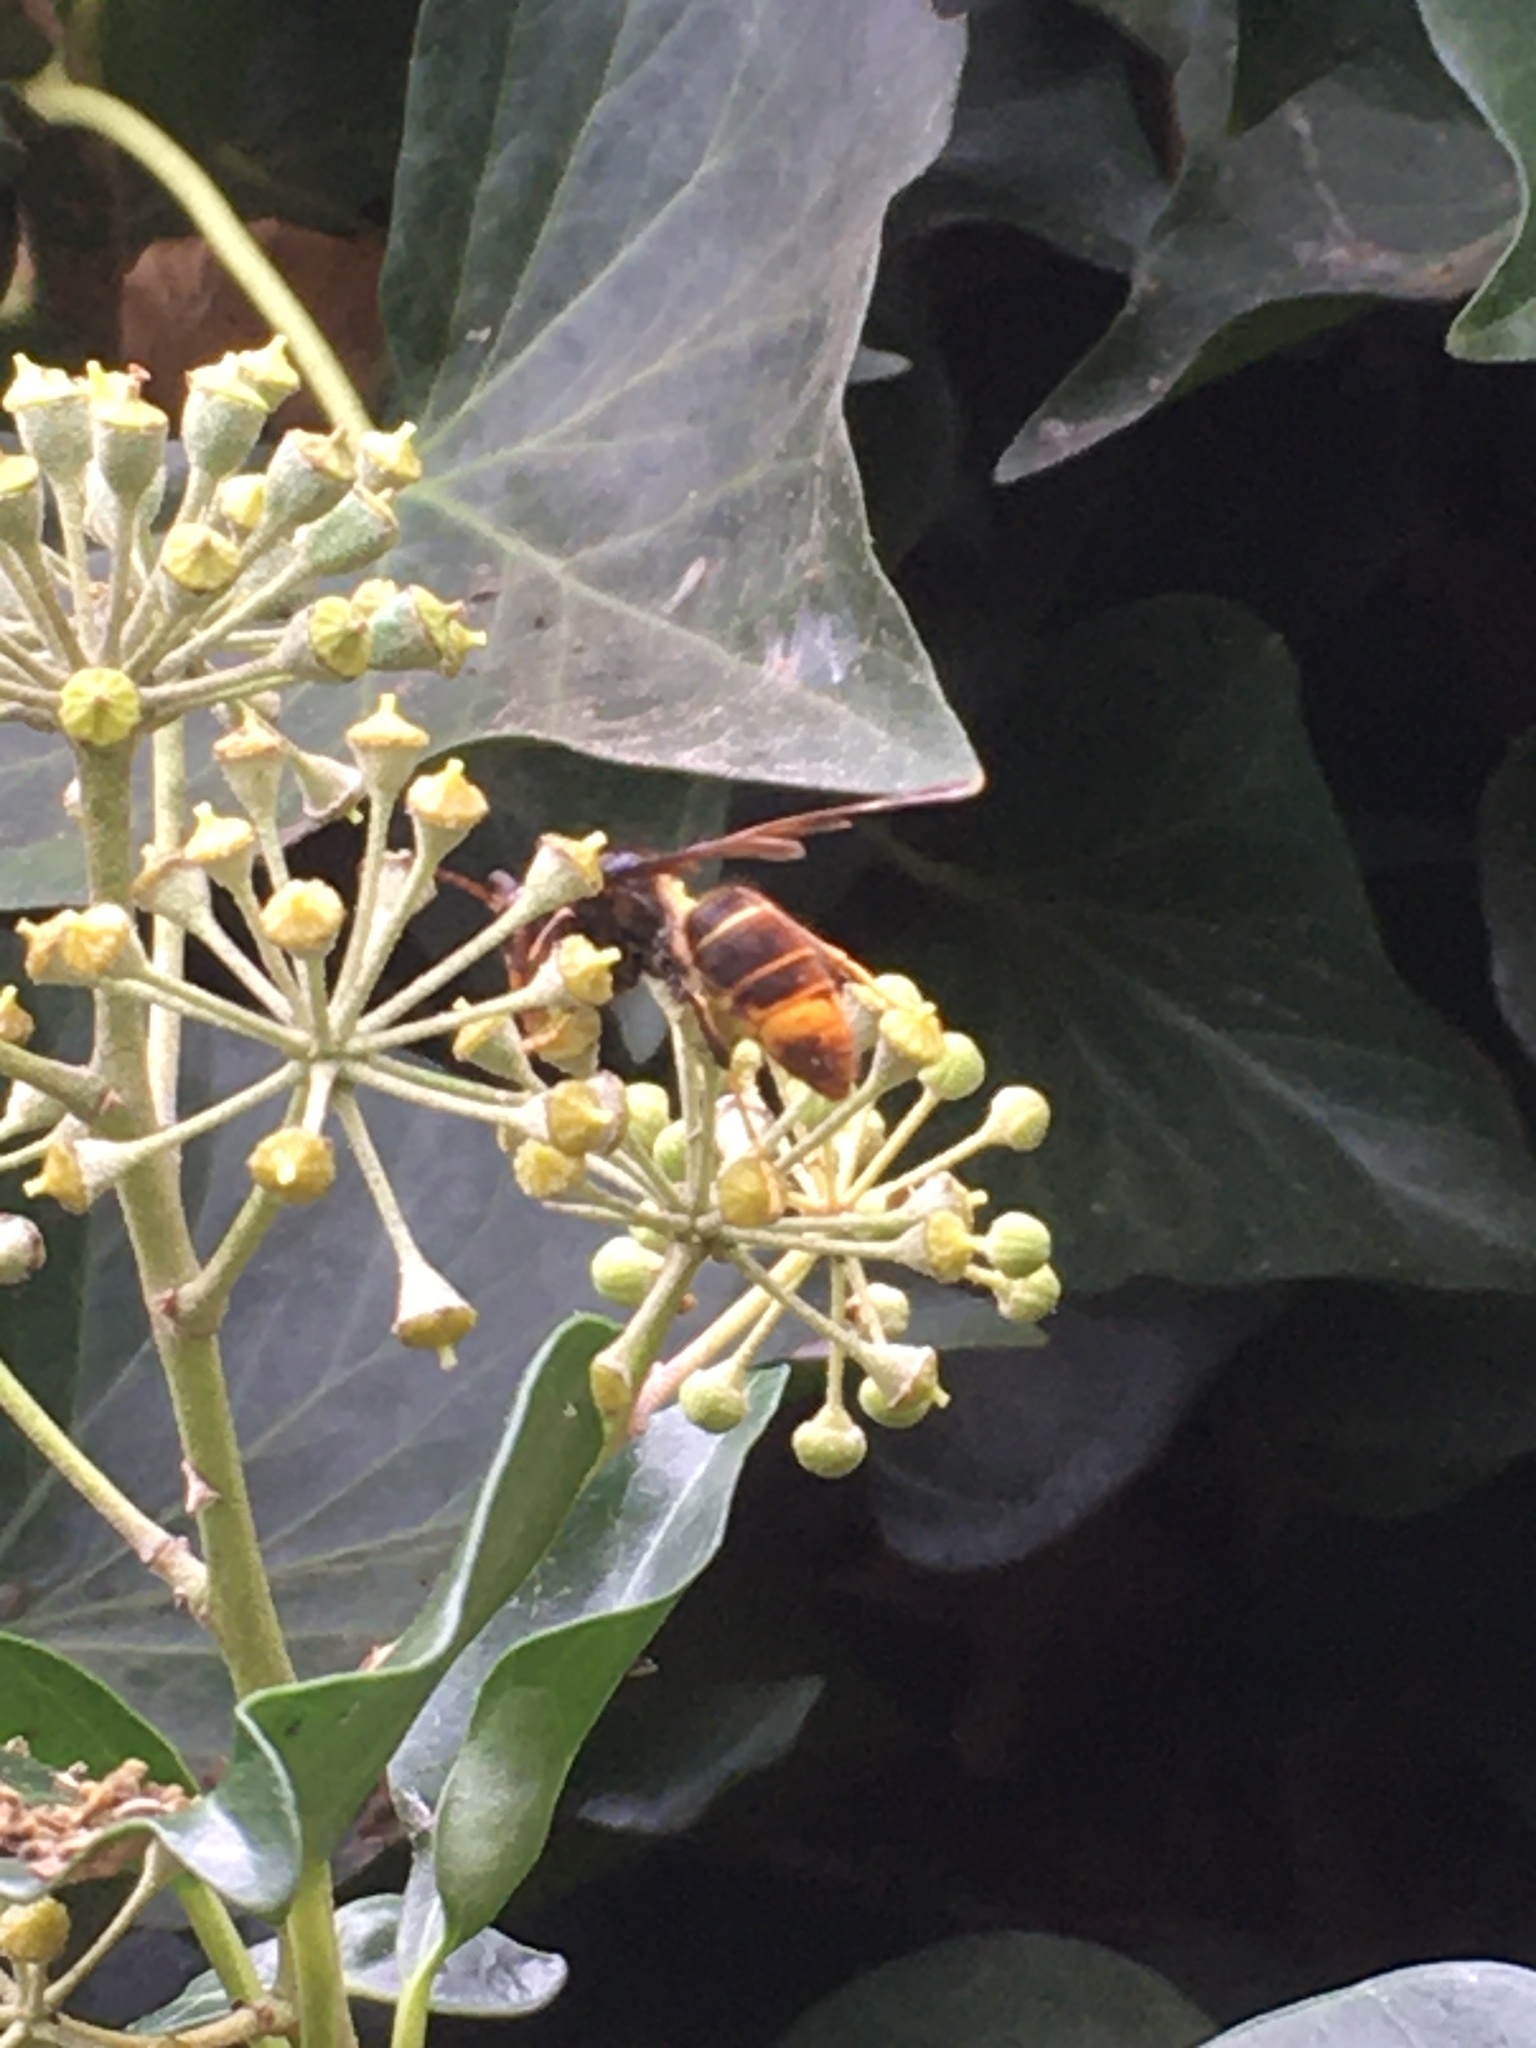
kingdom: Animalia
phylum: Arthropoda
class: Insecta
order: Hymenoptera
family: Vespidae
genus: Vespa
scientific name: Vespa velutina
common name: Asian hornet
